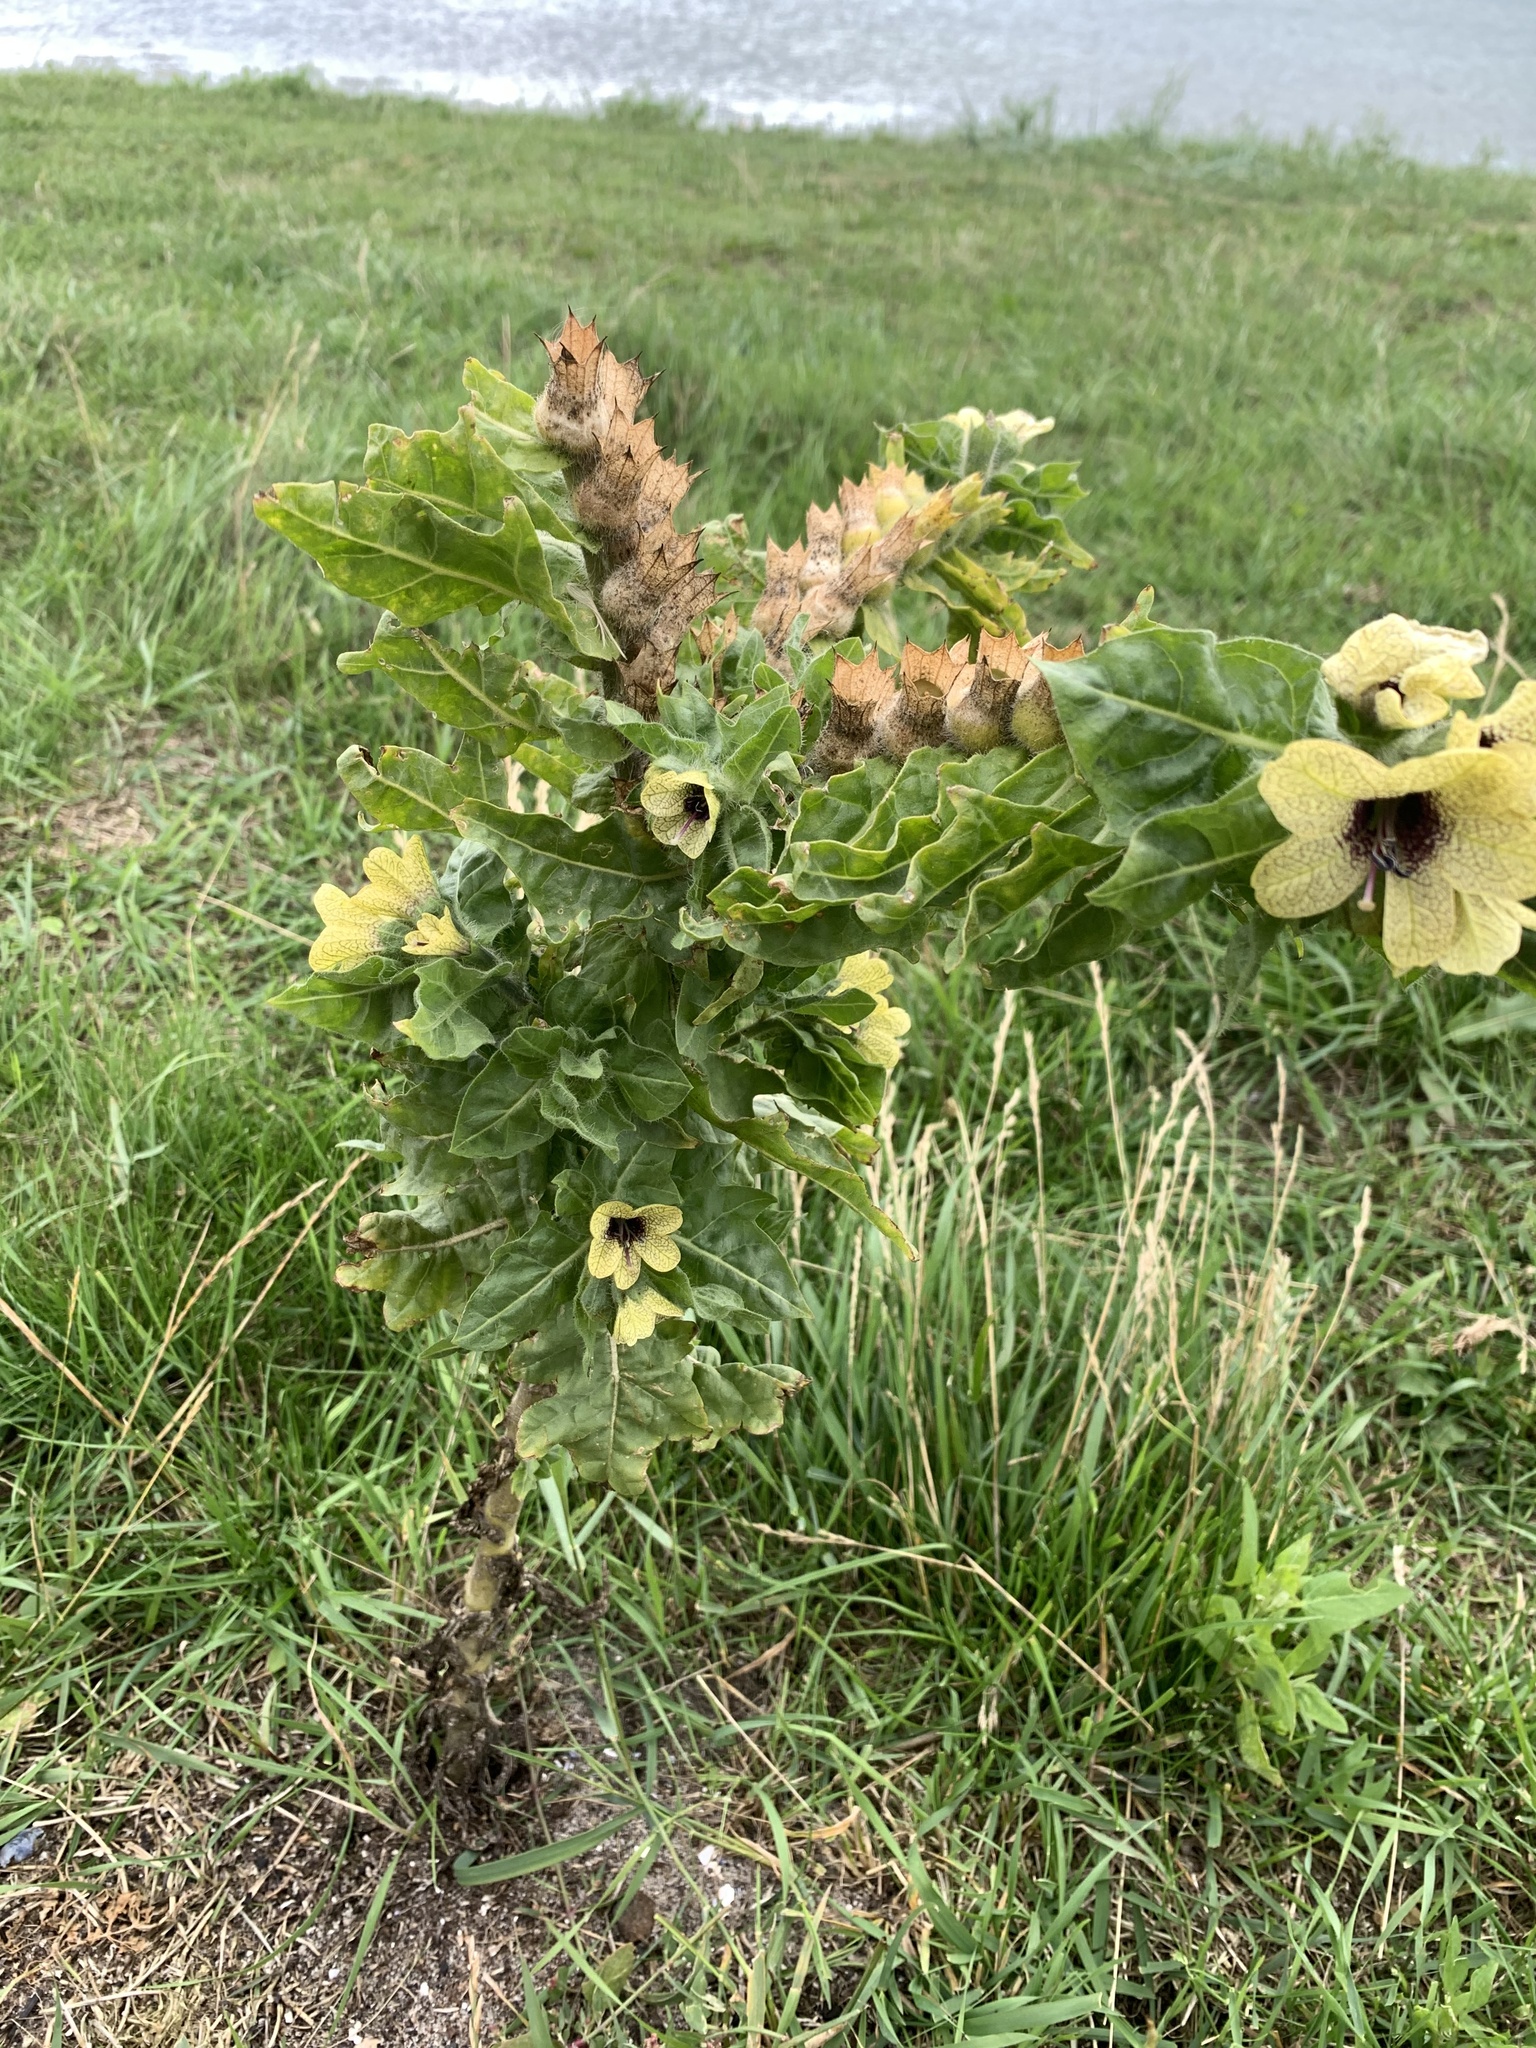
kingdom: Plantae
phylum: Tracheophyta
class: Magnoliopsida
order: Solanales
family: Solanaceae
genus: Hyoscyamus
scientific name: Hyoscyamus niger
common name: Henbane
